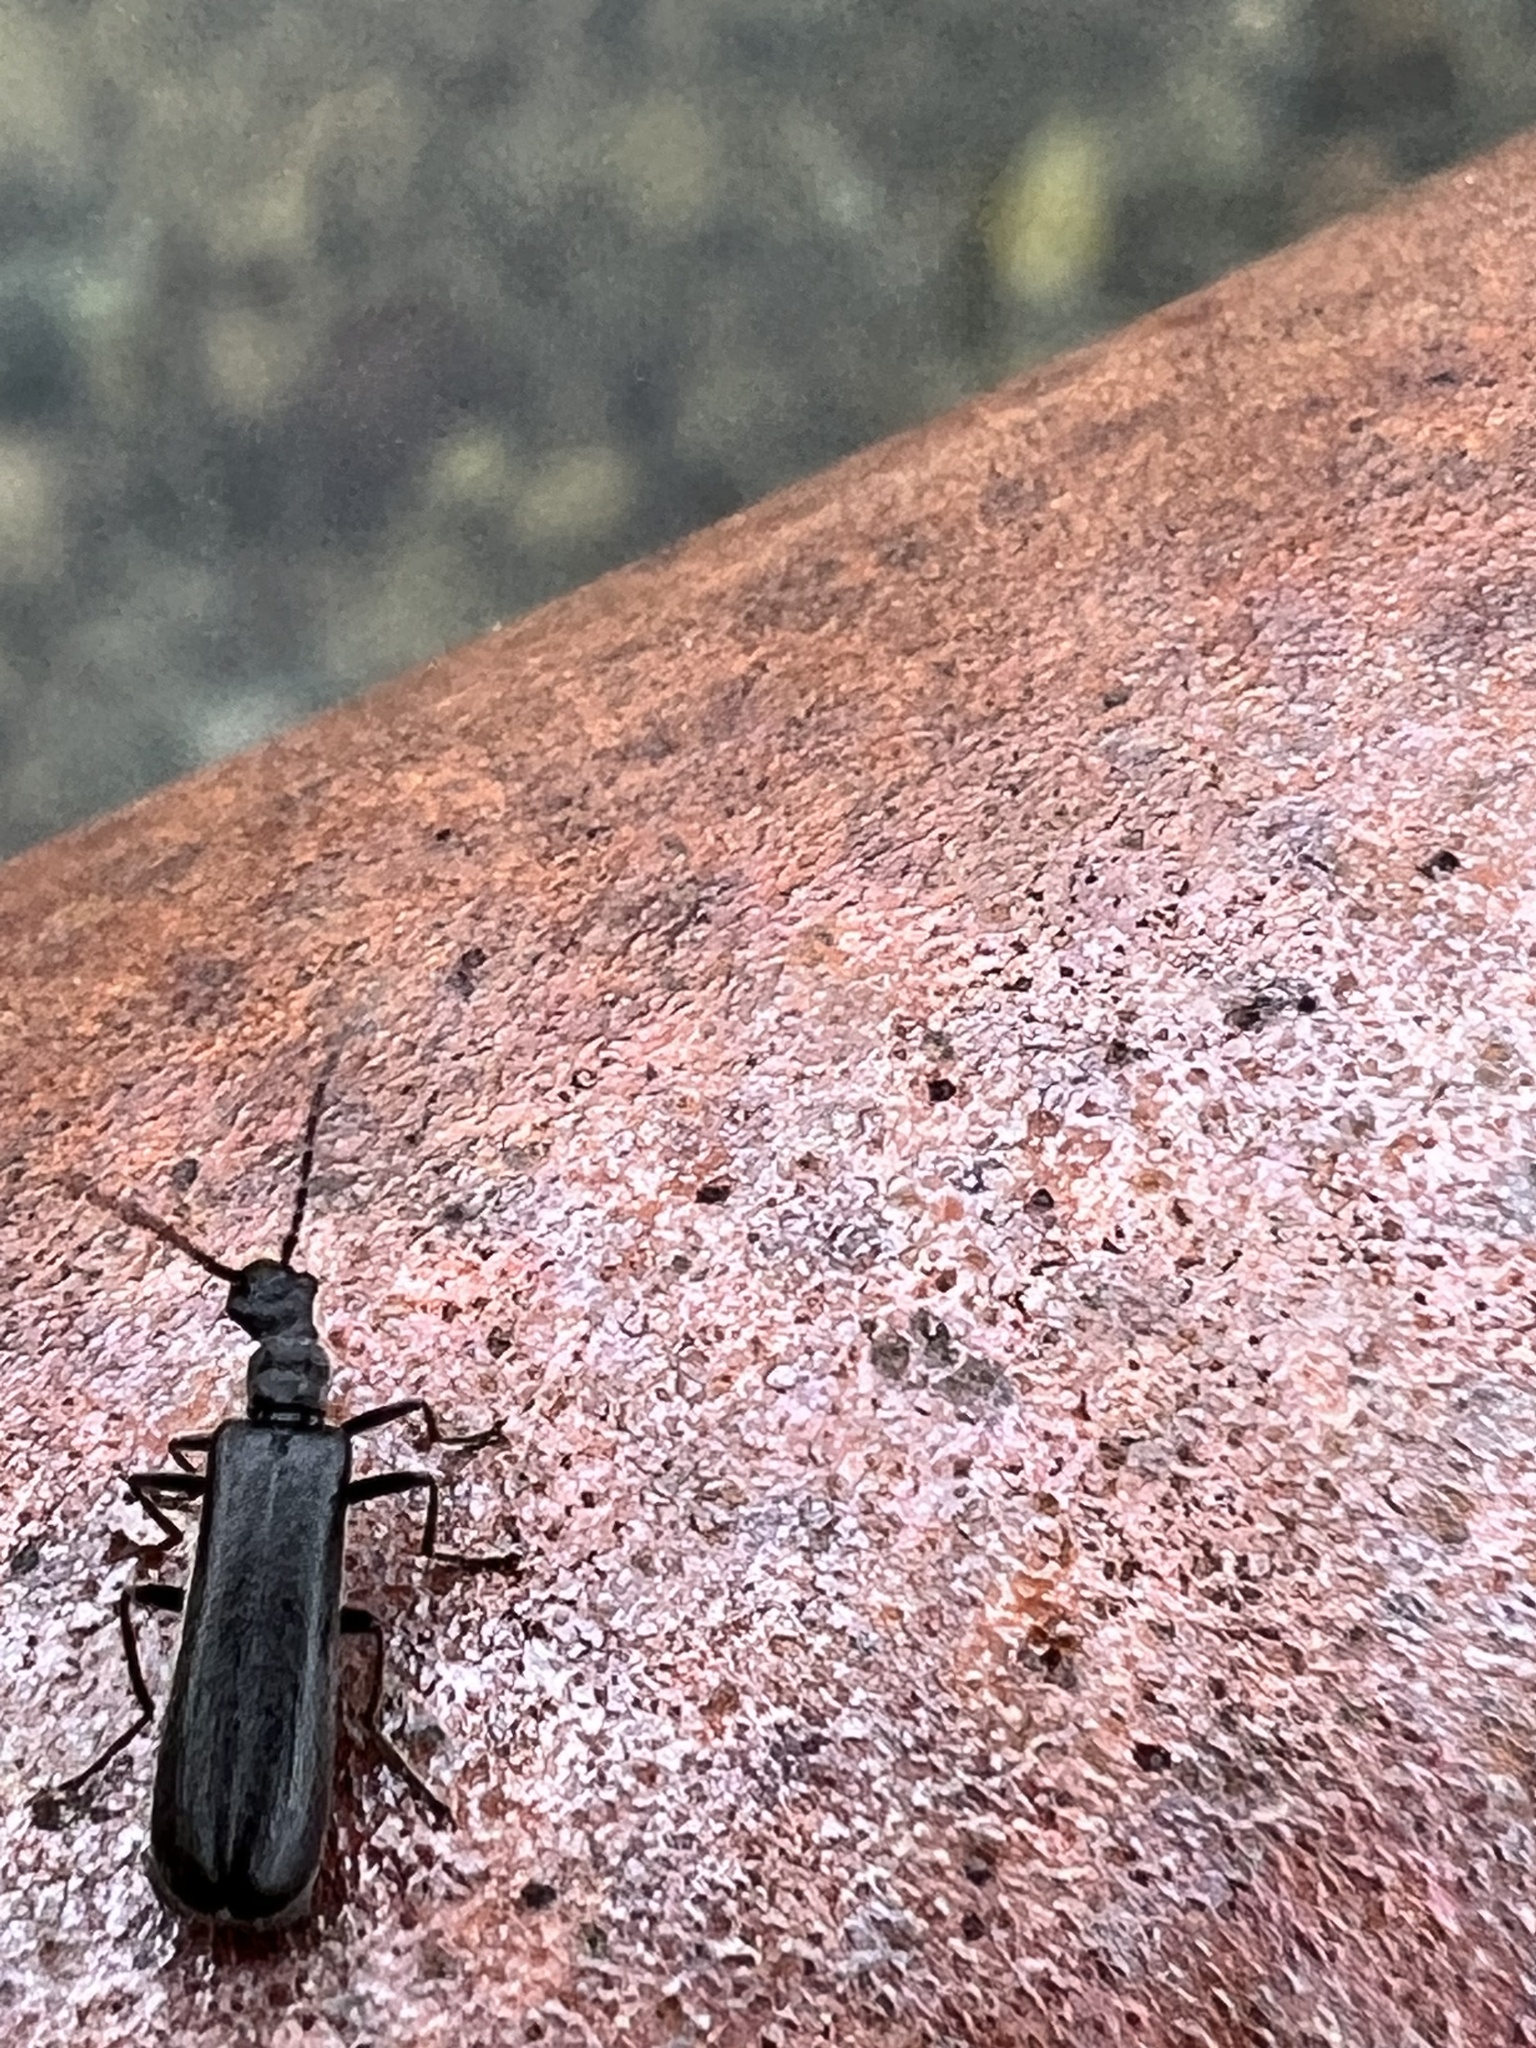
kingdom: Animalia
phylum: Arthropoda
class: Insecta
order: Coleoptera
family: Cantharidae
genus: Dichelotarsus
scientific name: Dichelotarsus piniphilus
